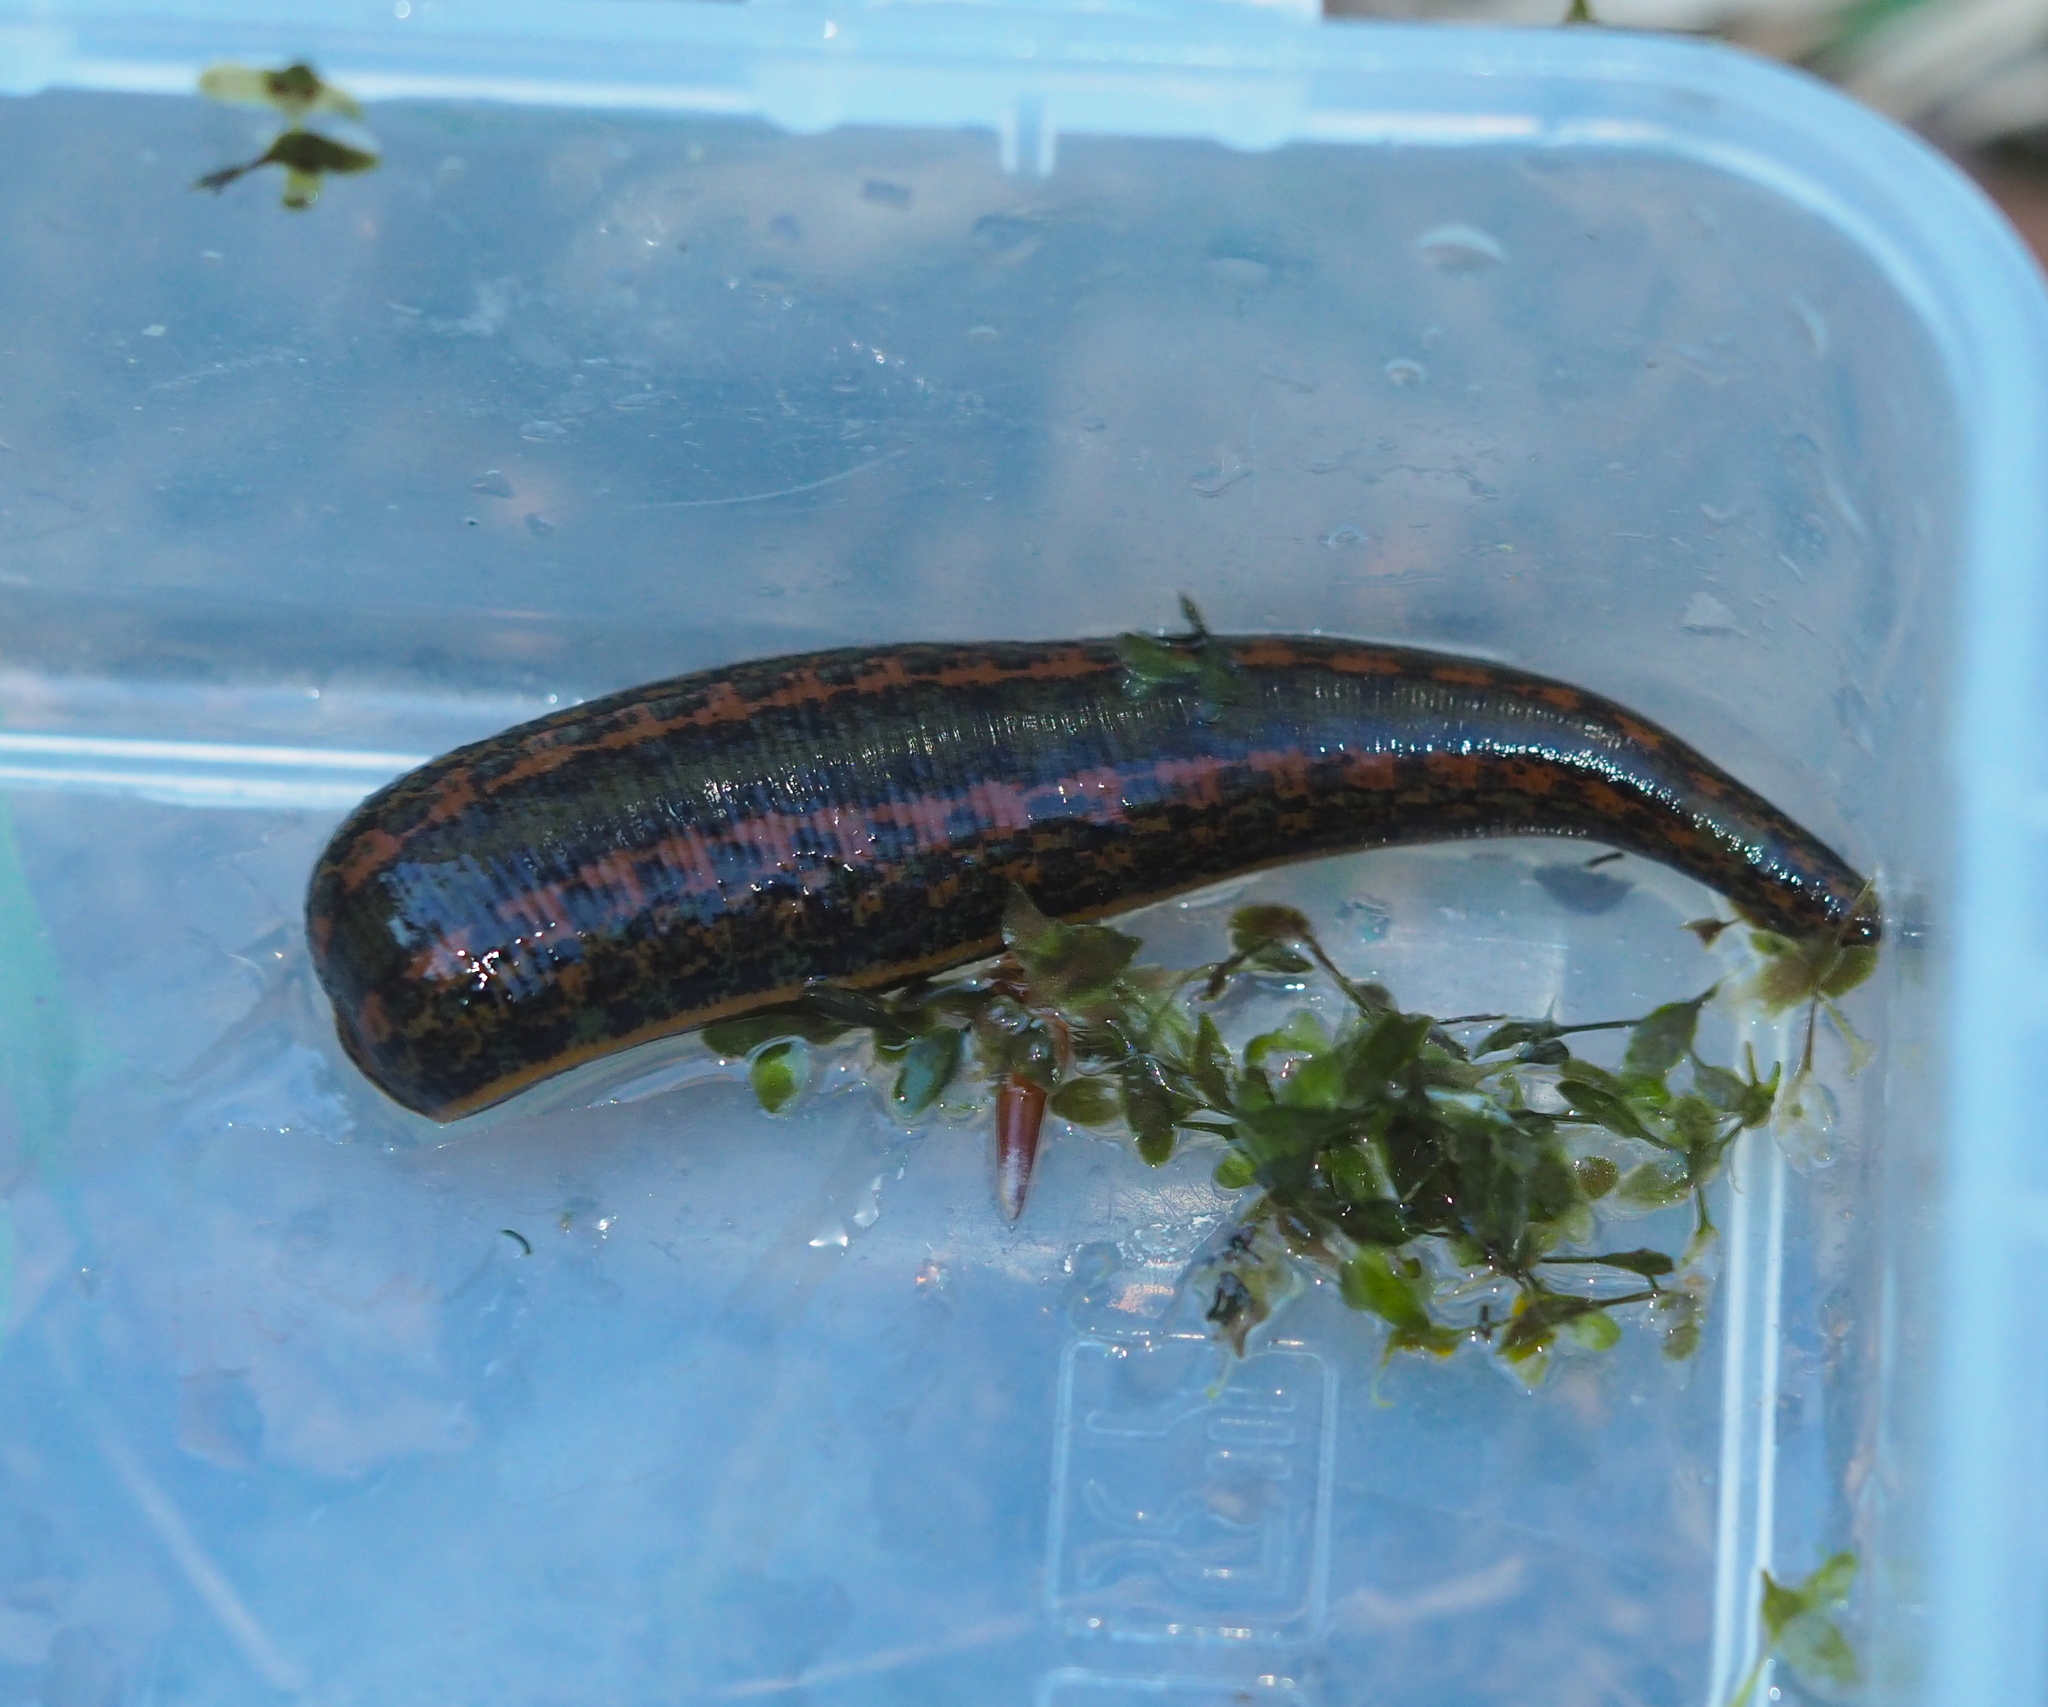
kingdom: Animalia
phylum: Annelida
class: Clitellata
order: Arhynchobdellida
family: Hirudinidae
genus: Hirudo
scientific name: Hirudo verbana
